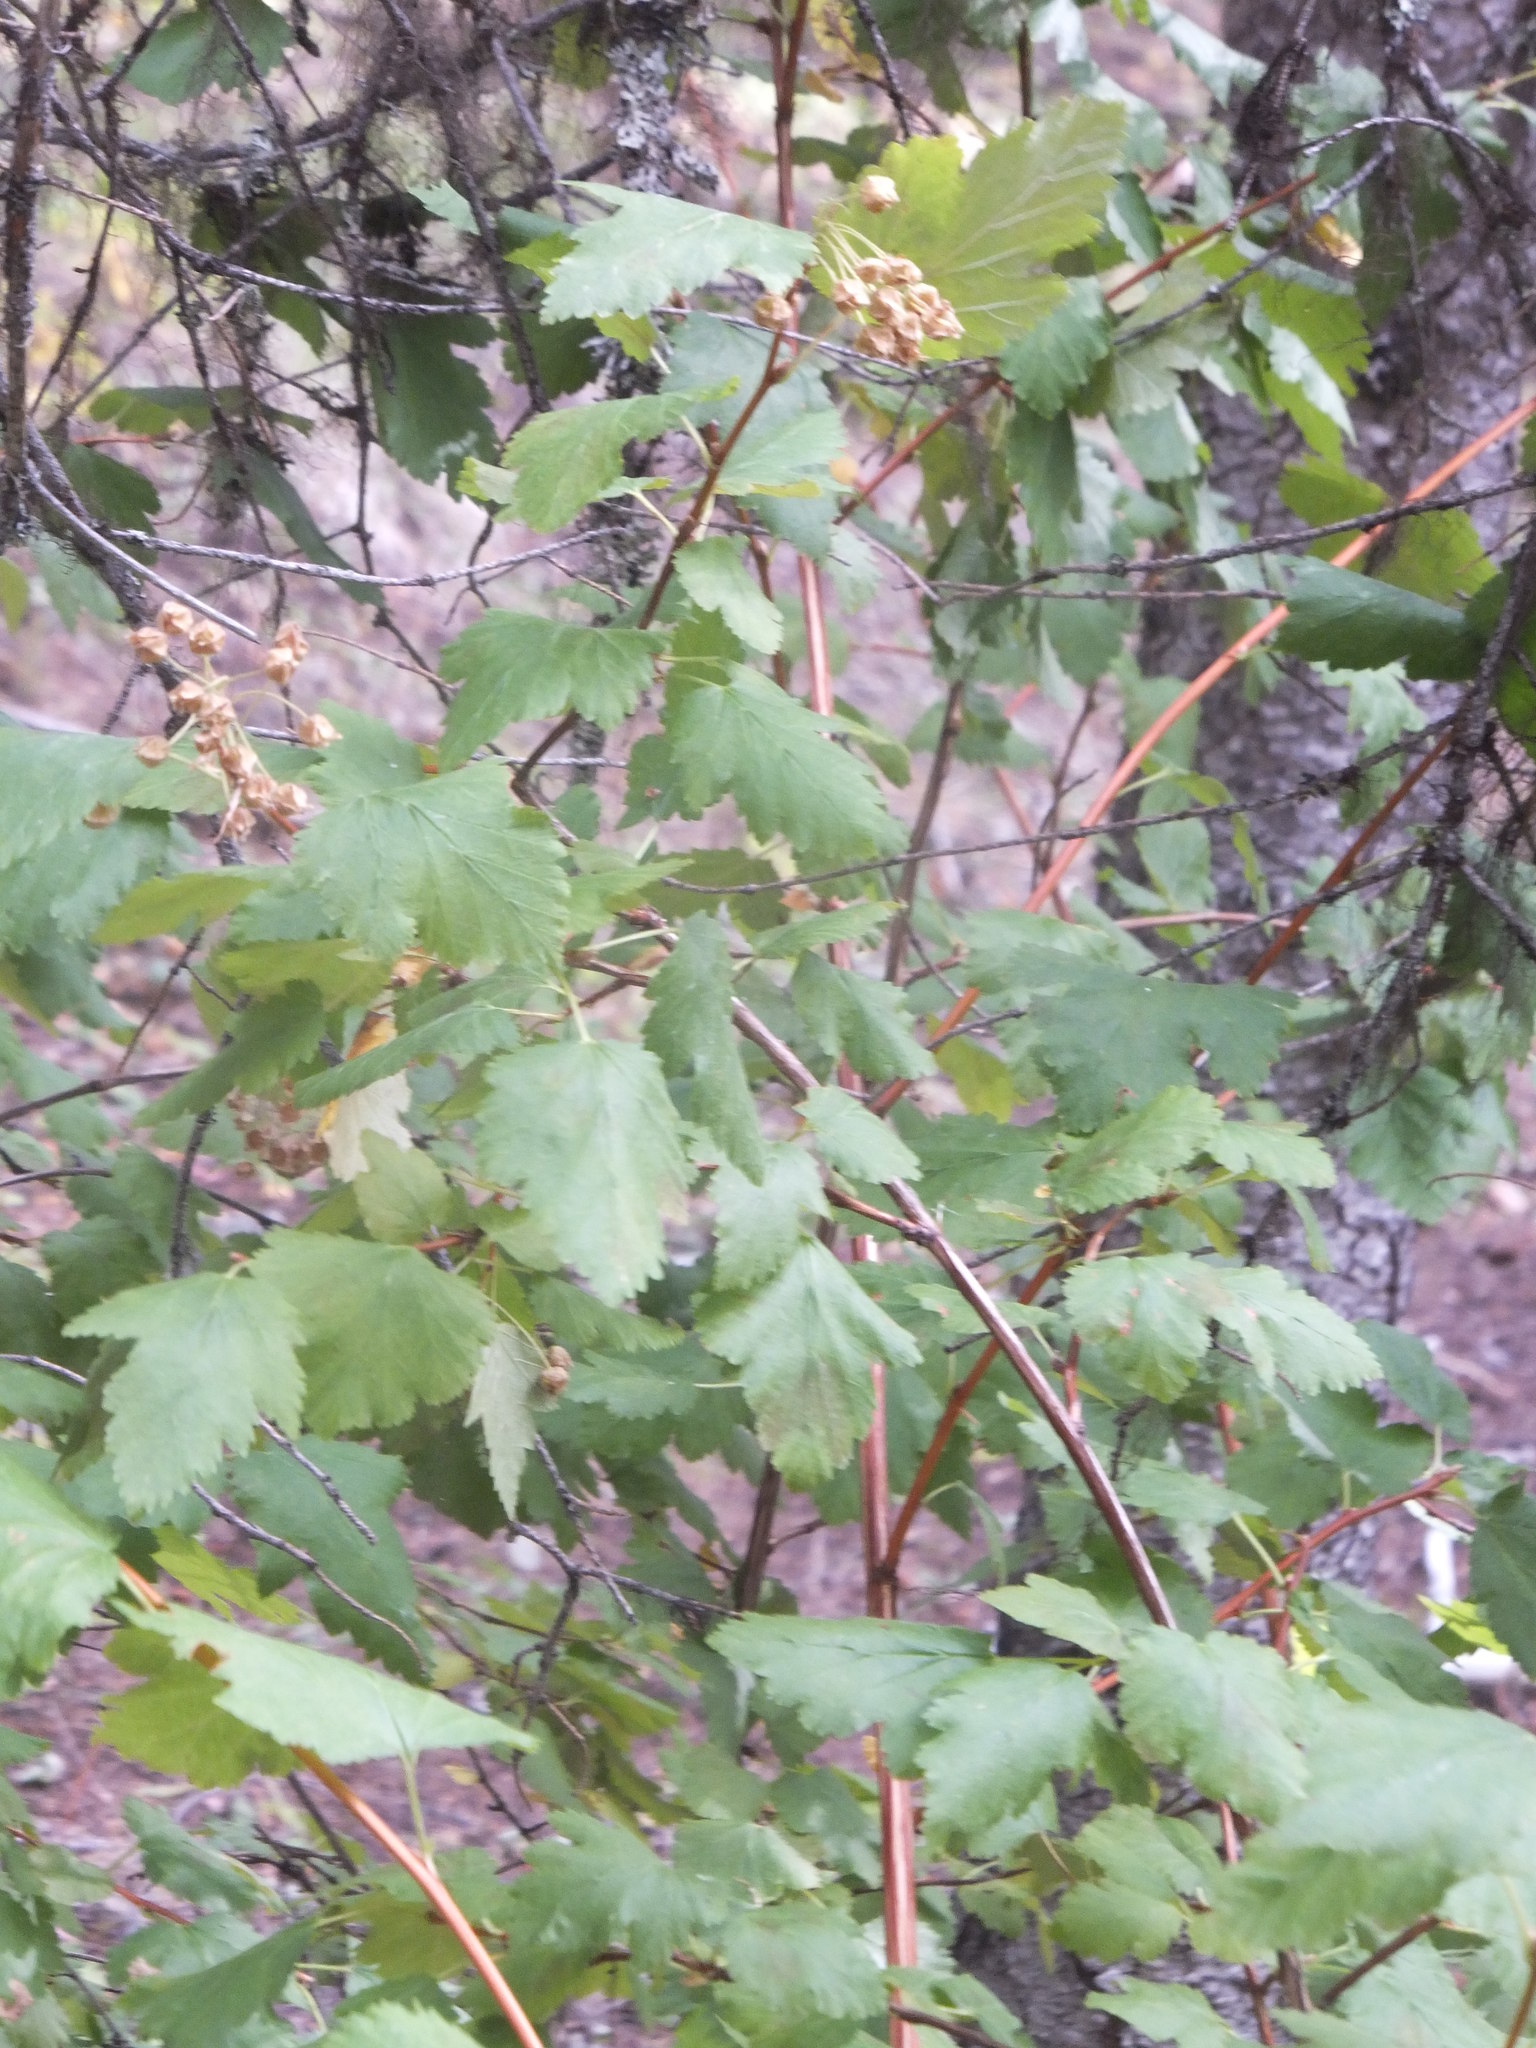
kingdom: Plantae
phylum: Tracheophyta
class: Magnoliopsida
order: Rosales
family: Rosaceae
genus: Physocarpus
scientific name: Physocarpus malvaceus
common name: Mallow ninebark
